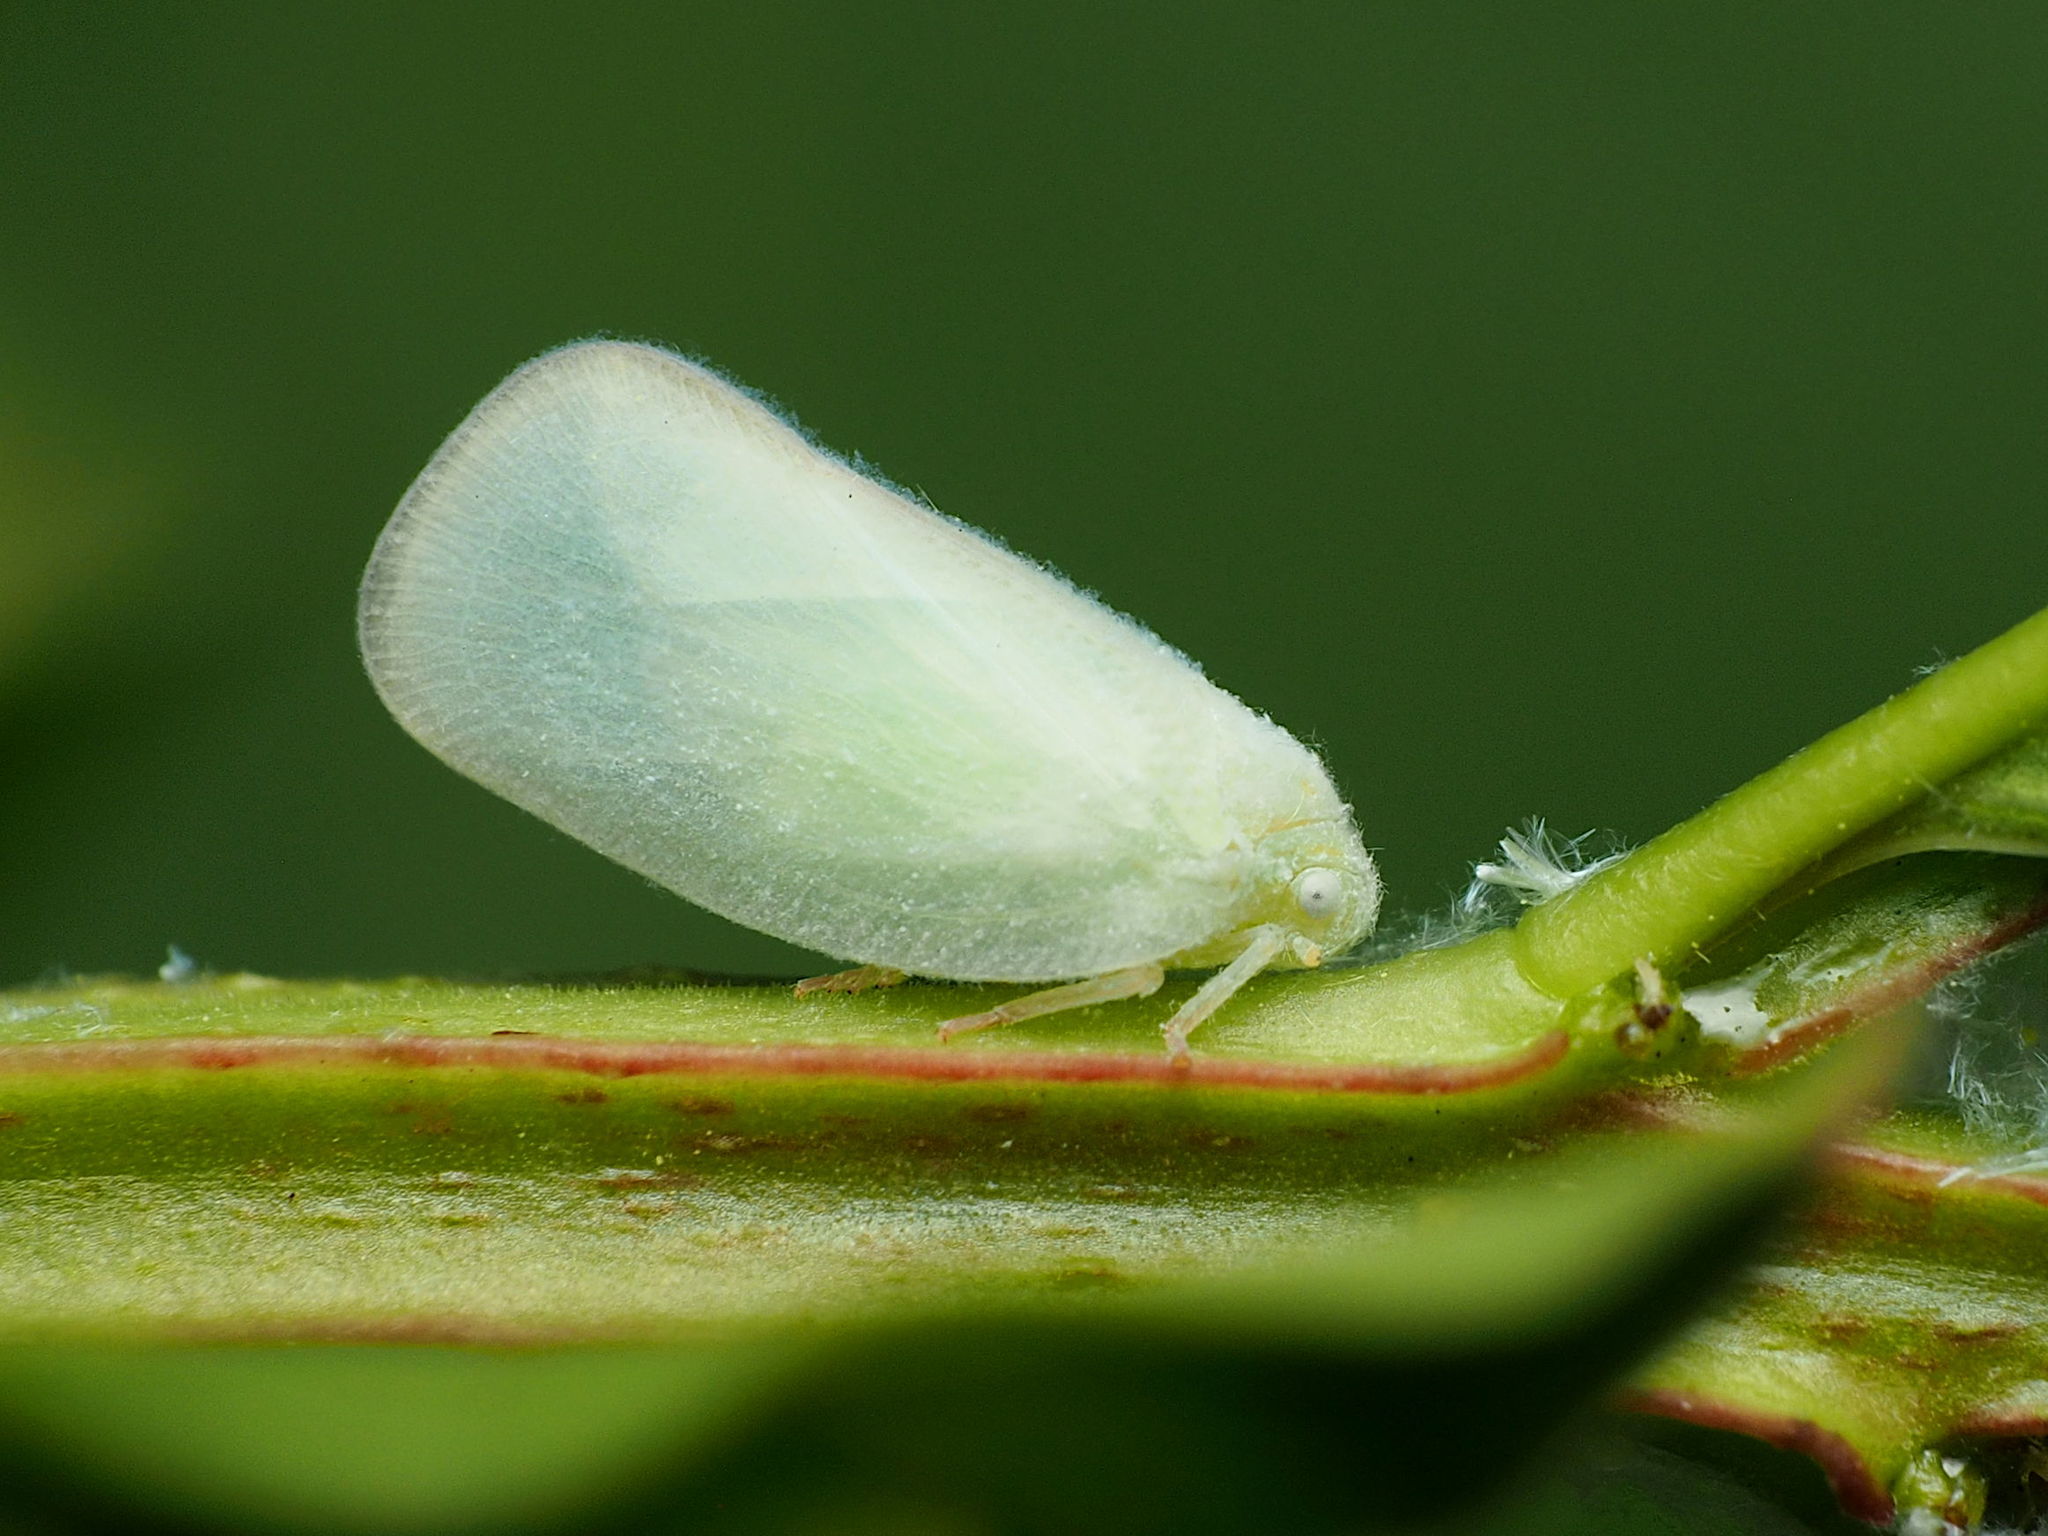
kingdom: Animalia
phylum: Arthropoda
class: Insecta
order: Hemiptera
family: Flatidae
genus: Ormenoides
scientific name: Ormenoides venusta
